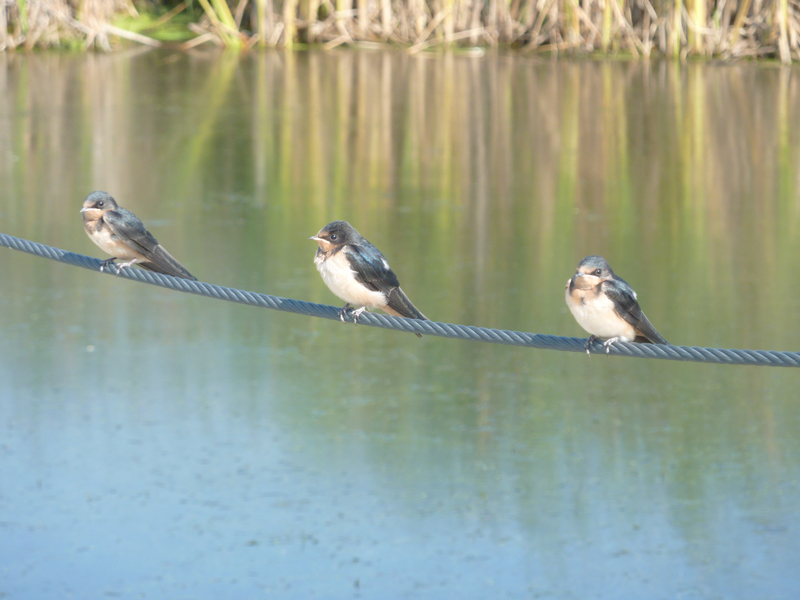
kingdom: Animalia
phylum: Chordata
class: Aves
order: Passeriformes
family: Hirundinidae
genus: Hirundo
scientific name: Hirundo rustica
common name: Barn swallow
